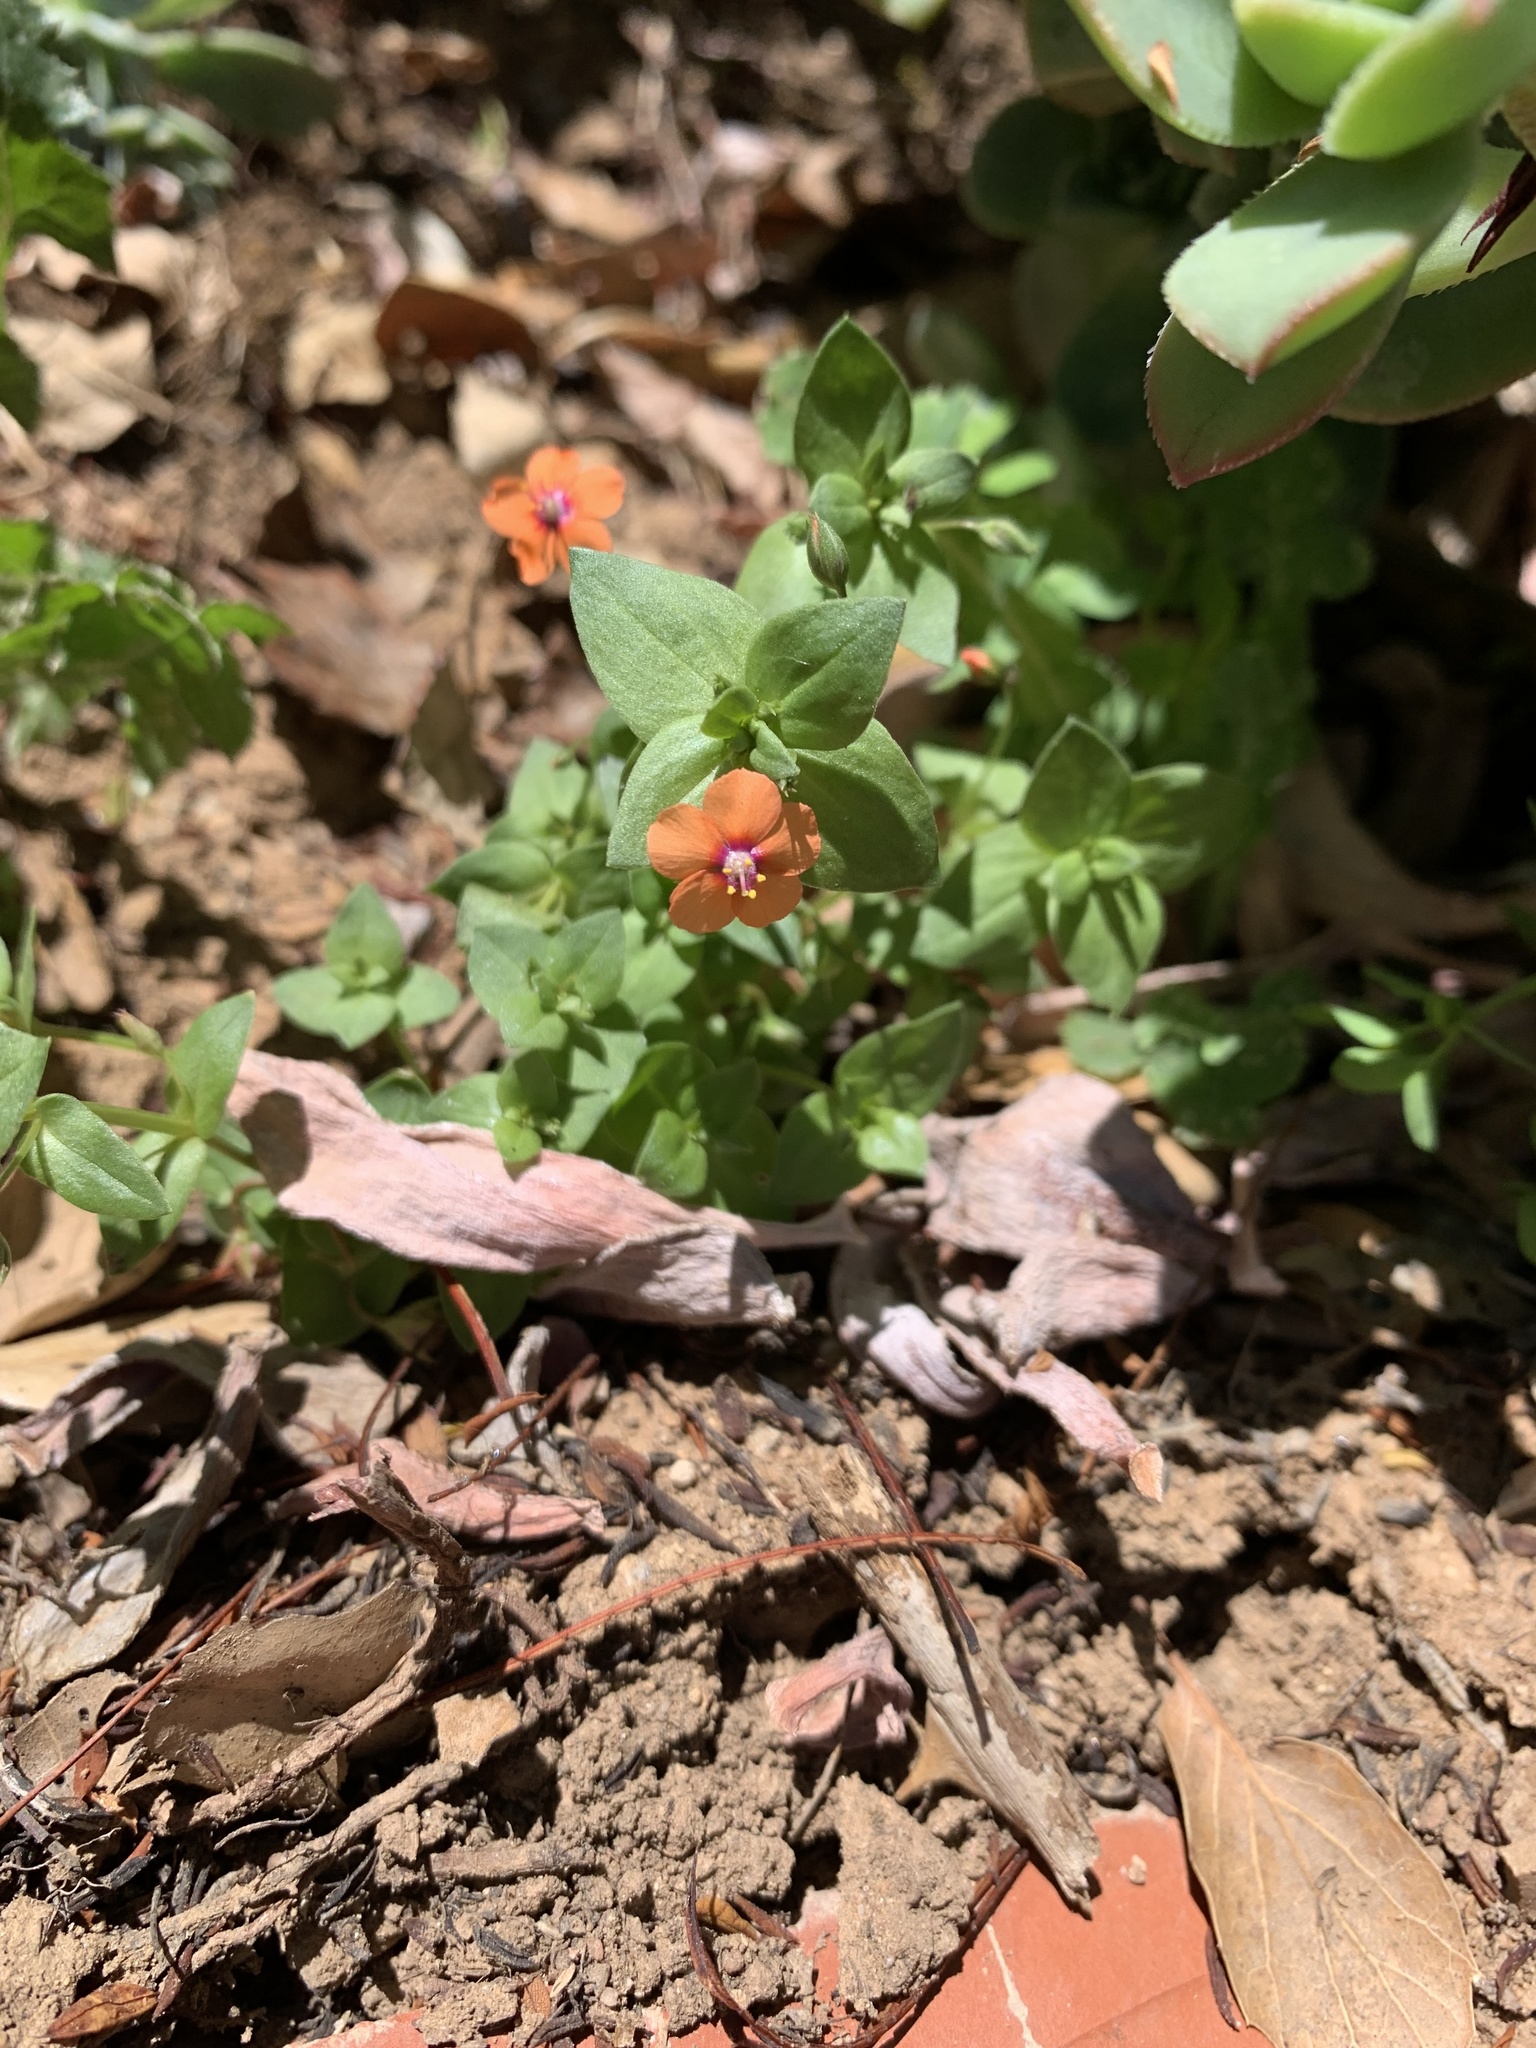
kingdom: Plantae
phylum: Tracheophyta
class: Magnoliopsida
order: Ericales
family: Primulaceae
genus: Lysimachia
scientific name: Lysimachia arvensis
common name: Scarlet pimpernel
